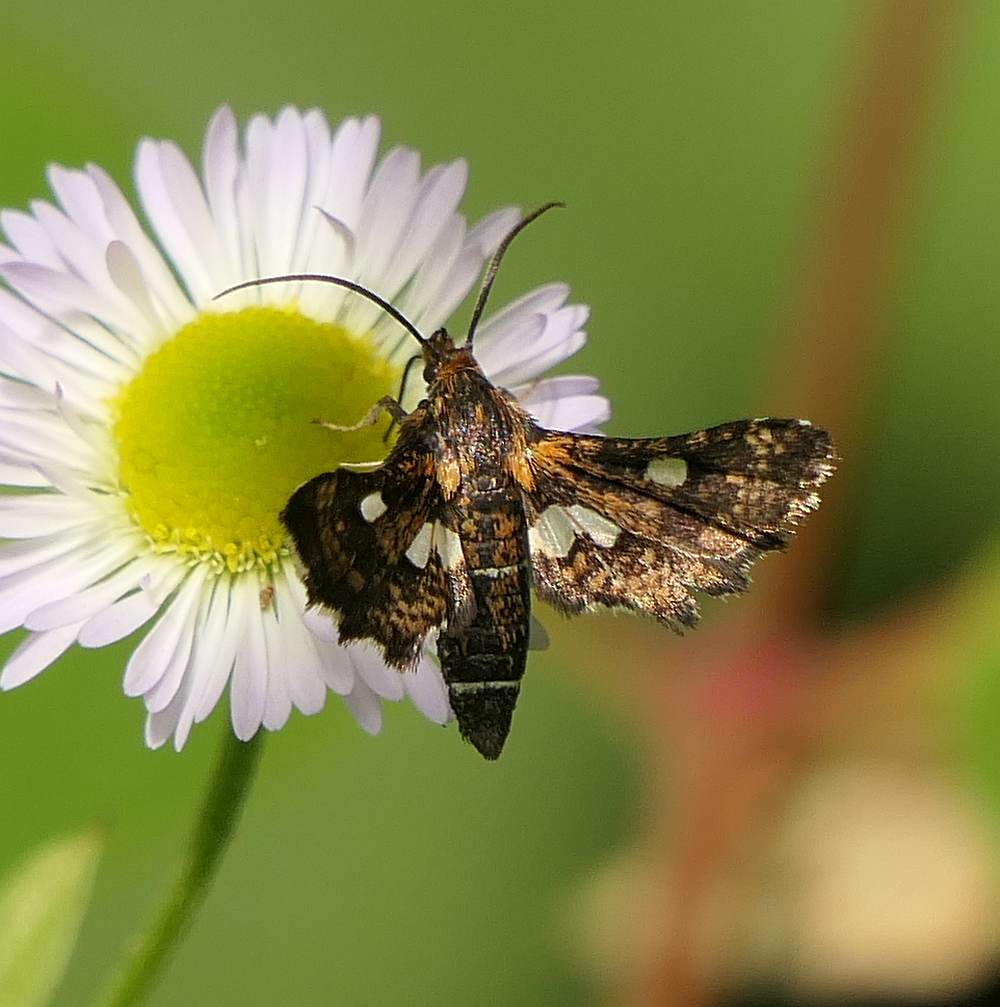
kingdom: Animalia
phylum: Arthropoda
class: Insecta
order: Lepidoptera
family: Thyrididae
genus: Thyris
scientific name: Thyris maculata
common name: Spotted thyris moth
